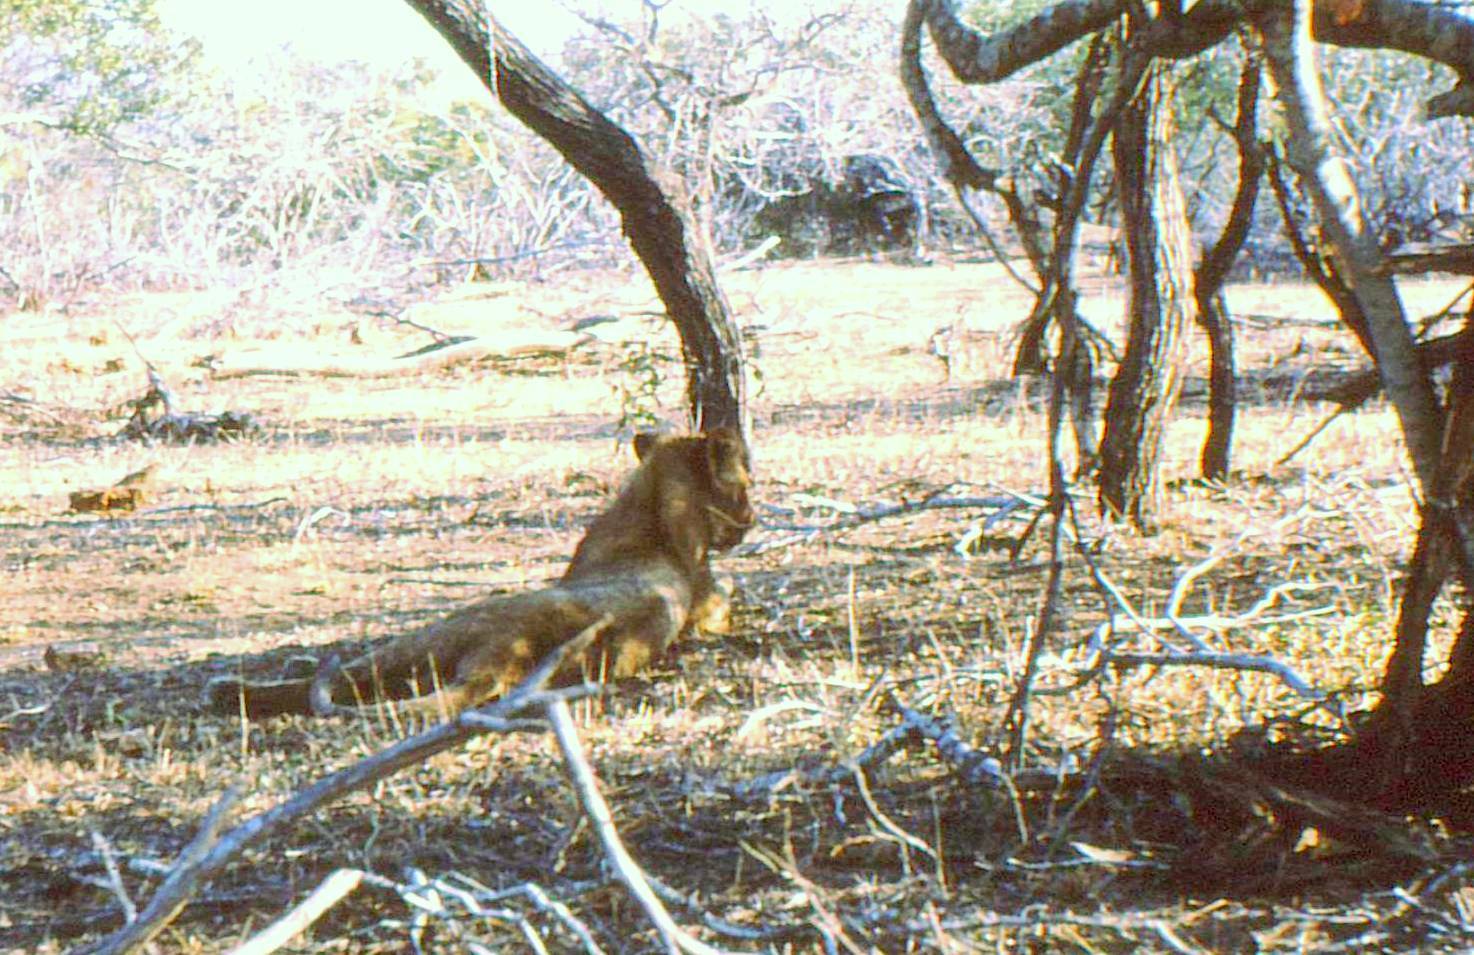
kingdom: Animalia
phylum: Chordata
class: Mammalia
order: Carnivora
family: Felidae
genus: Panthera
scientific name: Panthera leo
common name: Lion
